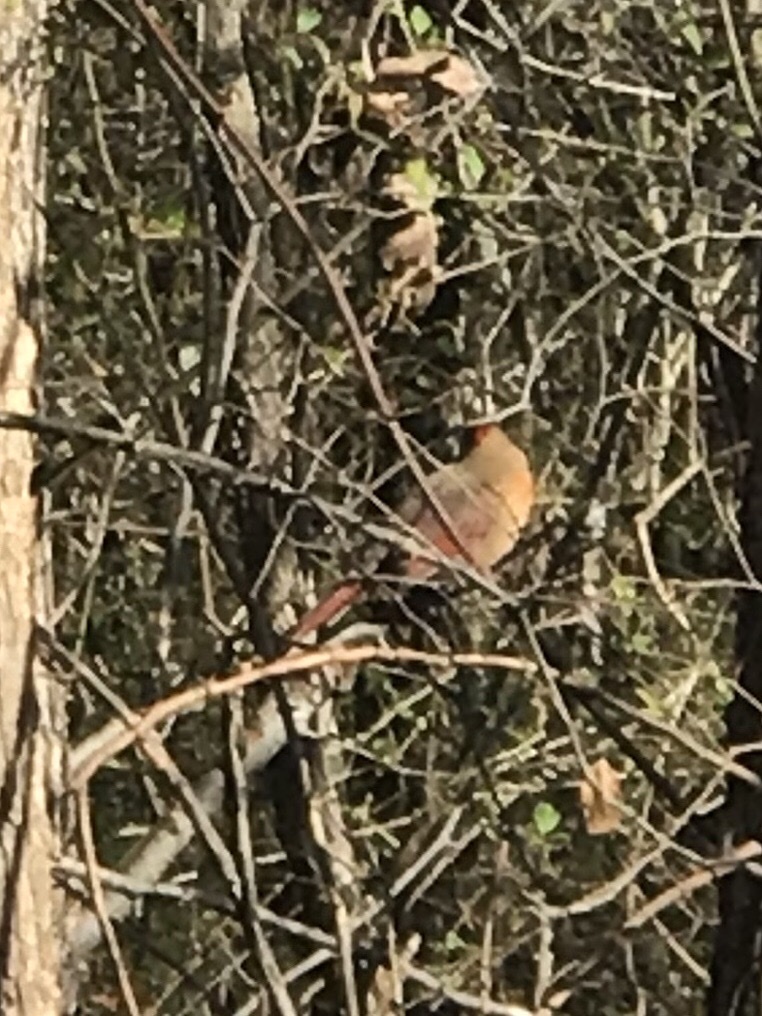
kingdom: Animalia
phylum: Chordata
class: Aves
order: Passeriformes
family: Cardinalidae
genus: Cardinalis
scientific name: Cardinalis cardinalis
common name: Northern cardinal
